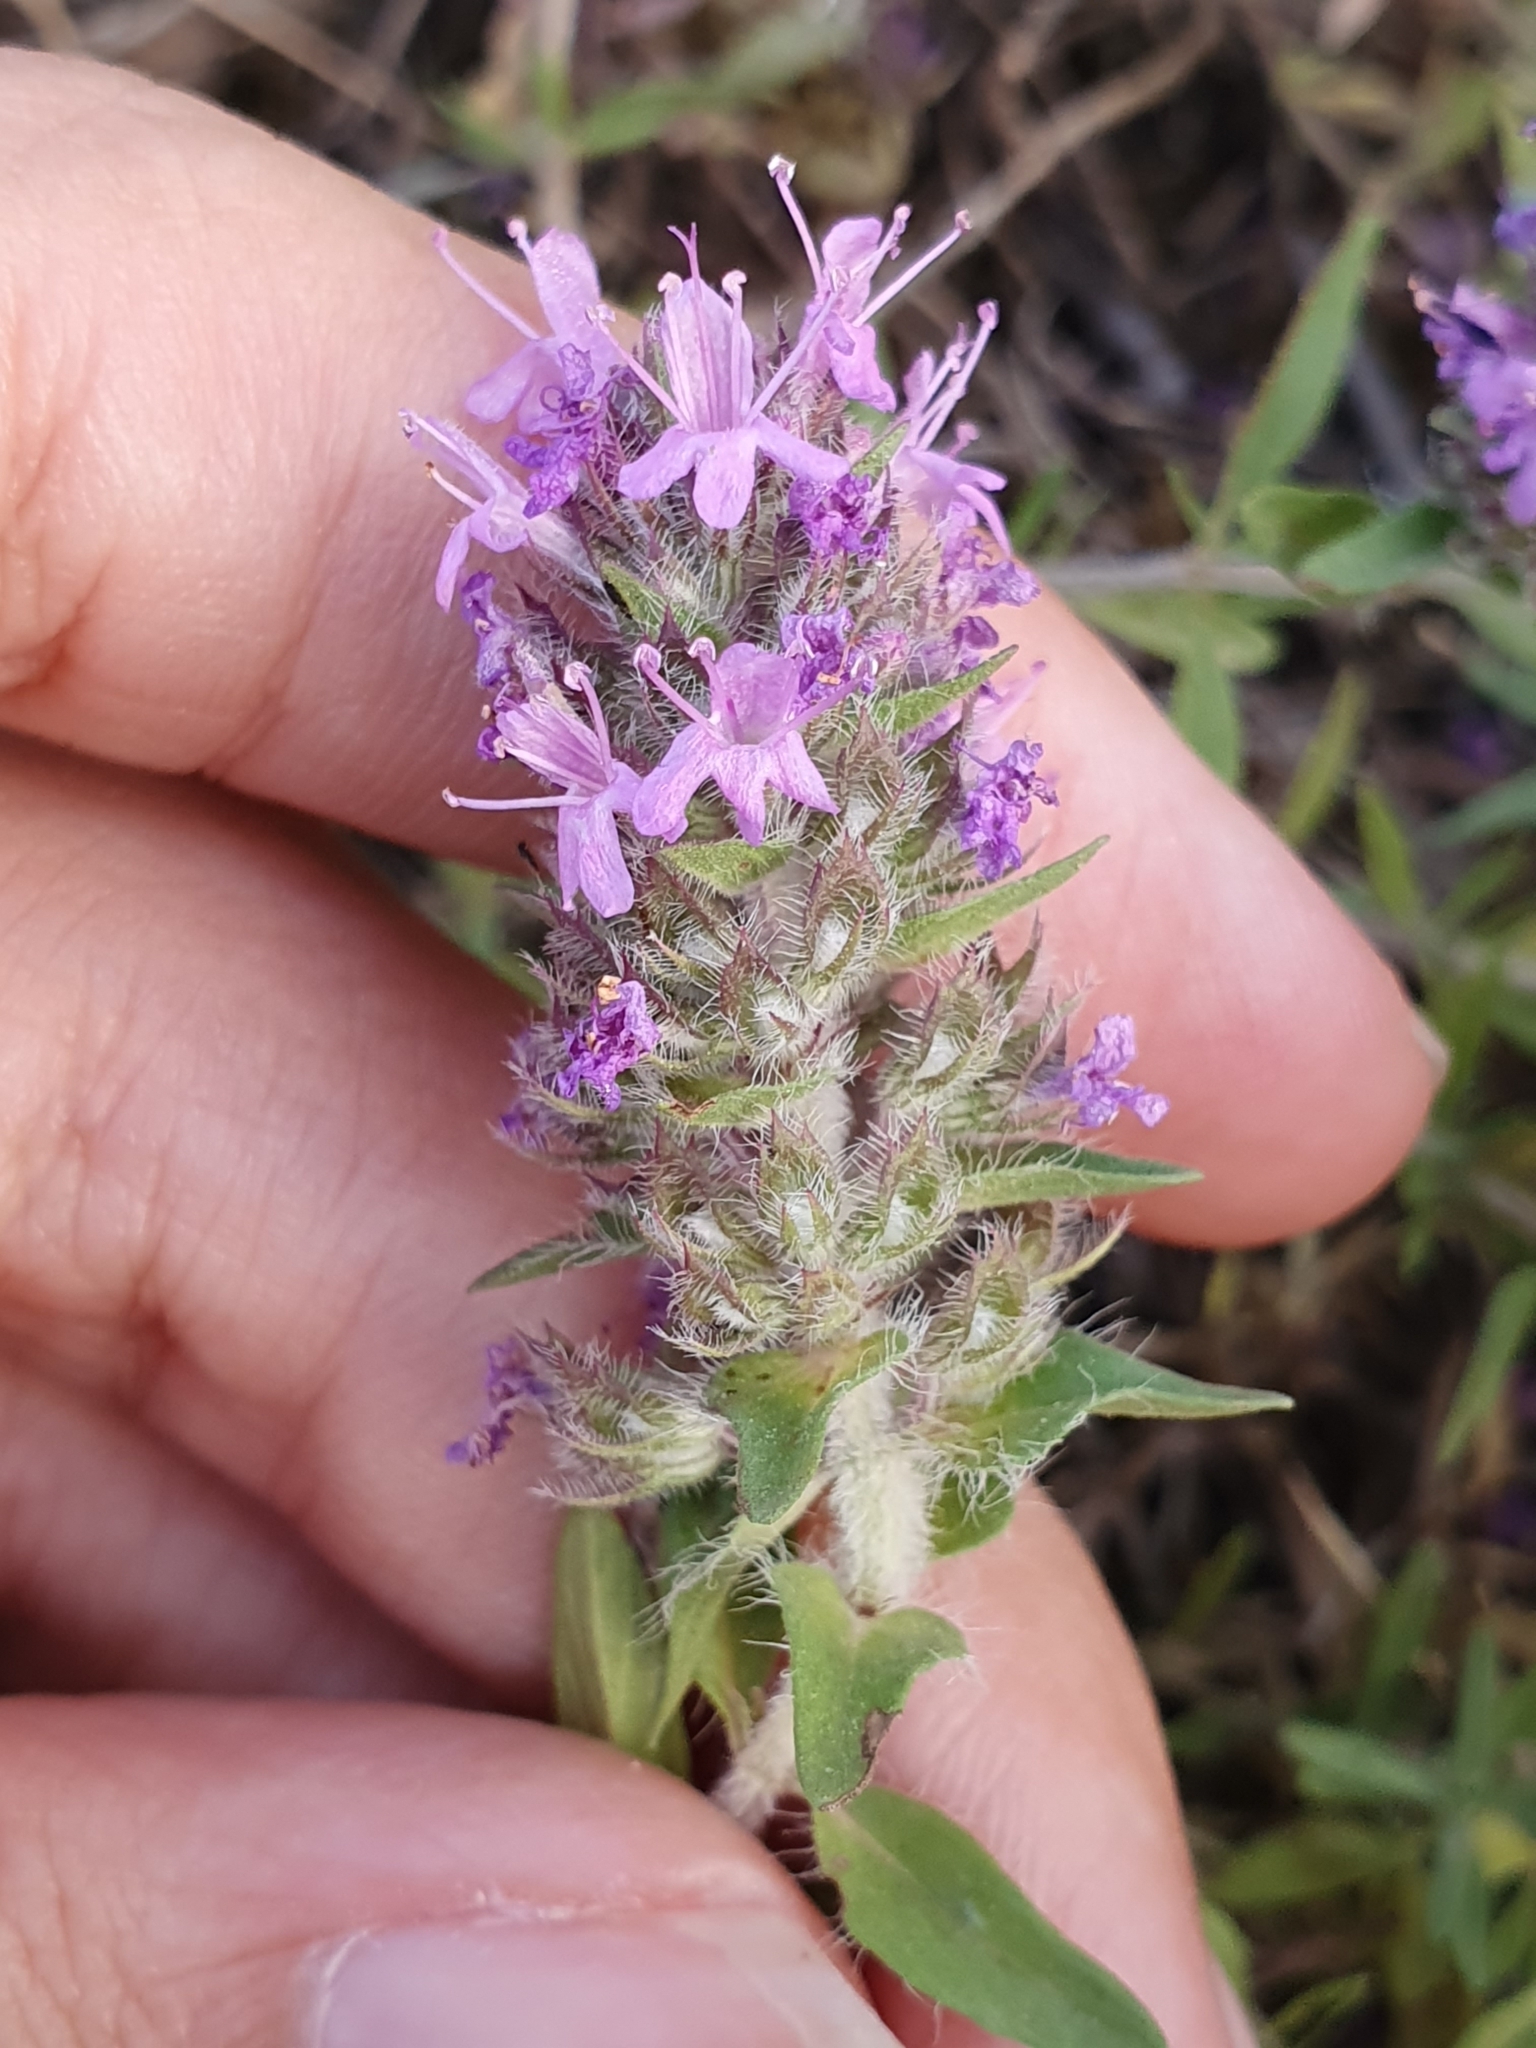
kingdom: Plantae
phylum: Tracheophyta
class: Magnoliopsida
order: Lamiales
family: Lamiaceae
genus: Thymus
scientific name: Thymus numidicus
